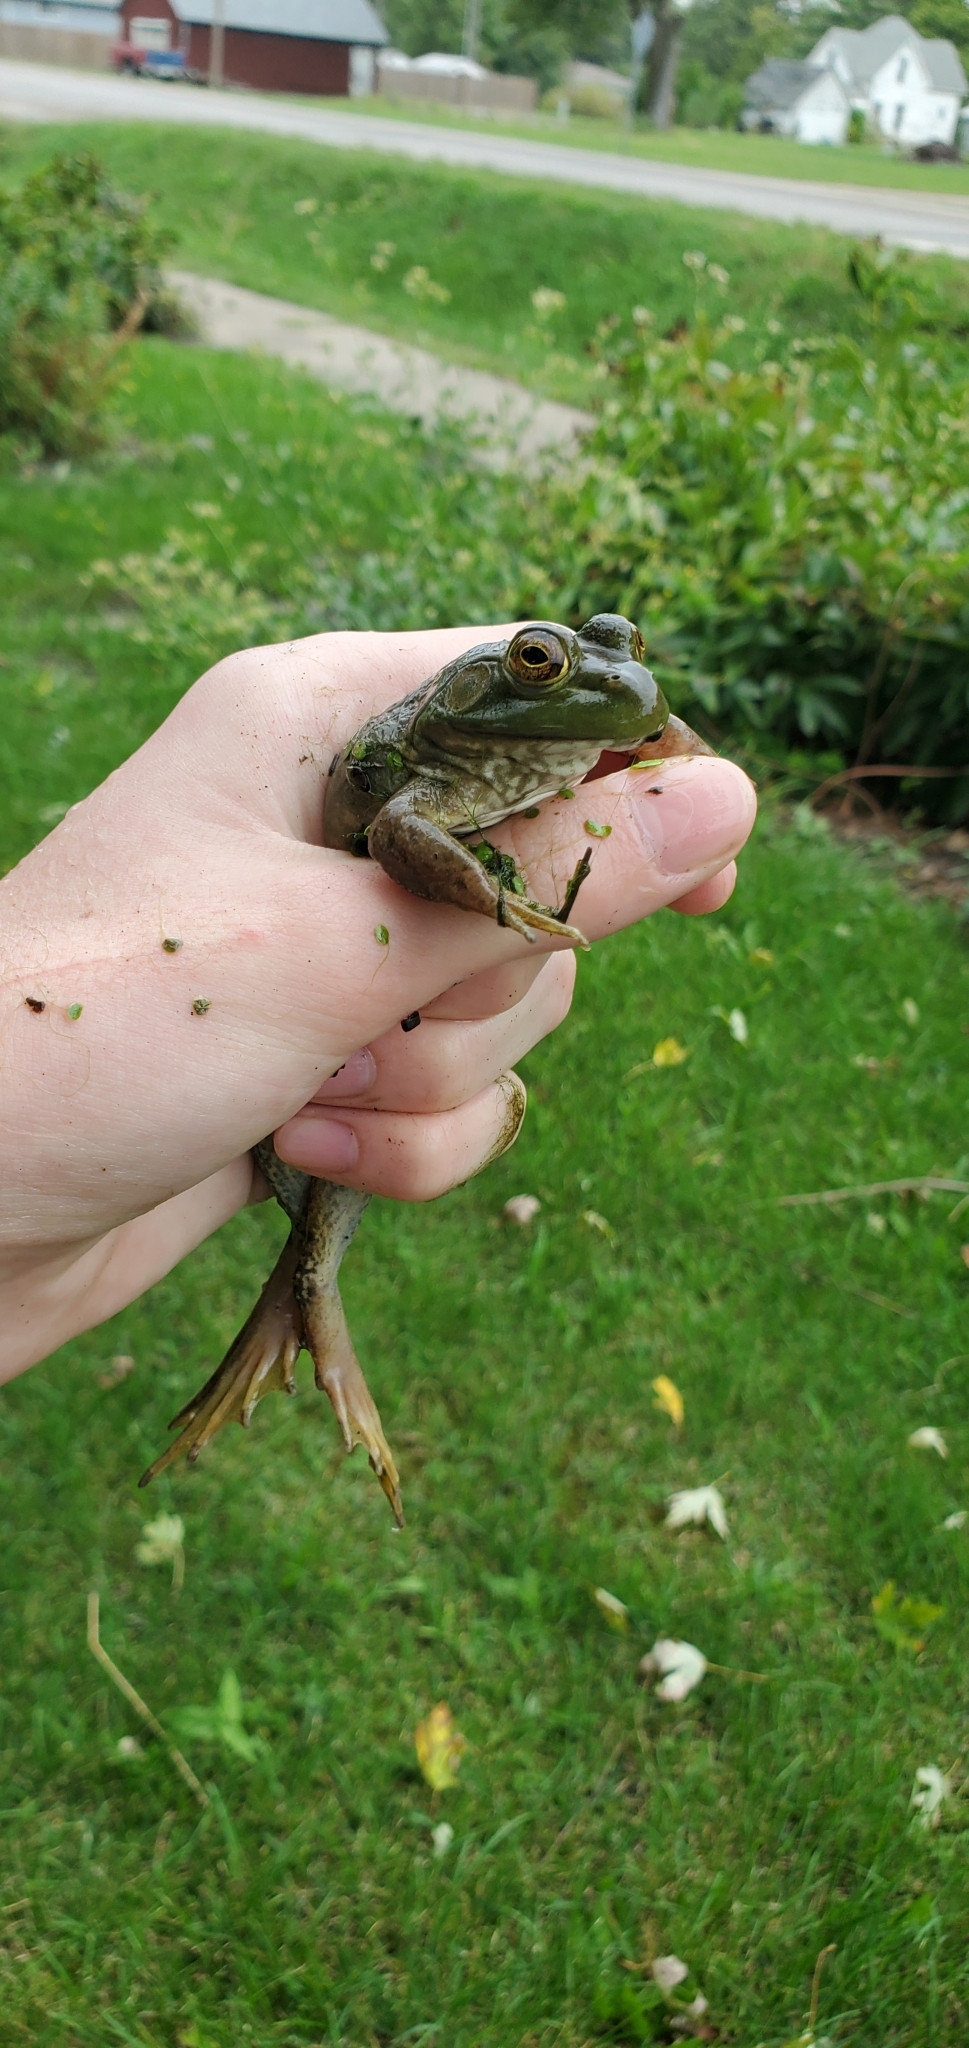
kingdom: Animalia
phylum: Chordata
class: Amphibia
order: Anura
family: Ranidae
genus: Lithobates
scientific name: Lithobates catesbeianus
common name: American bullfrog
